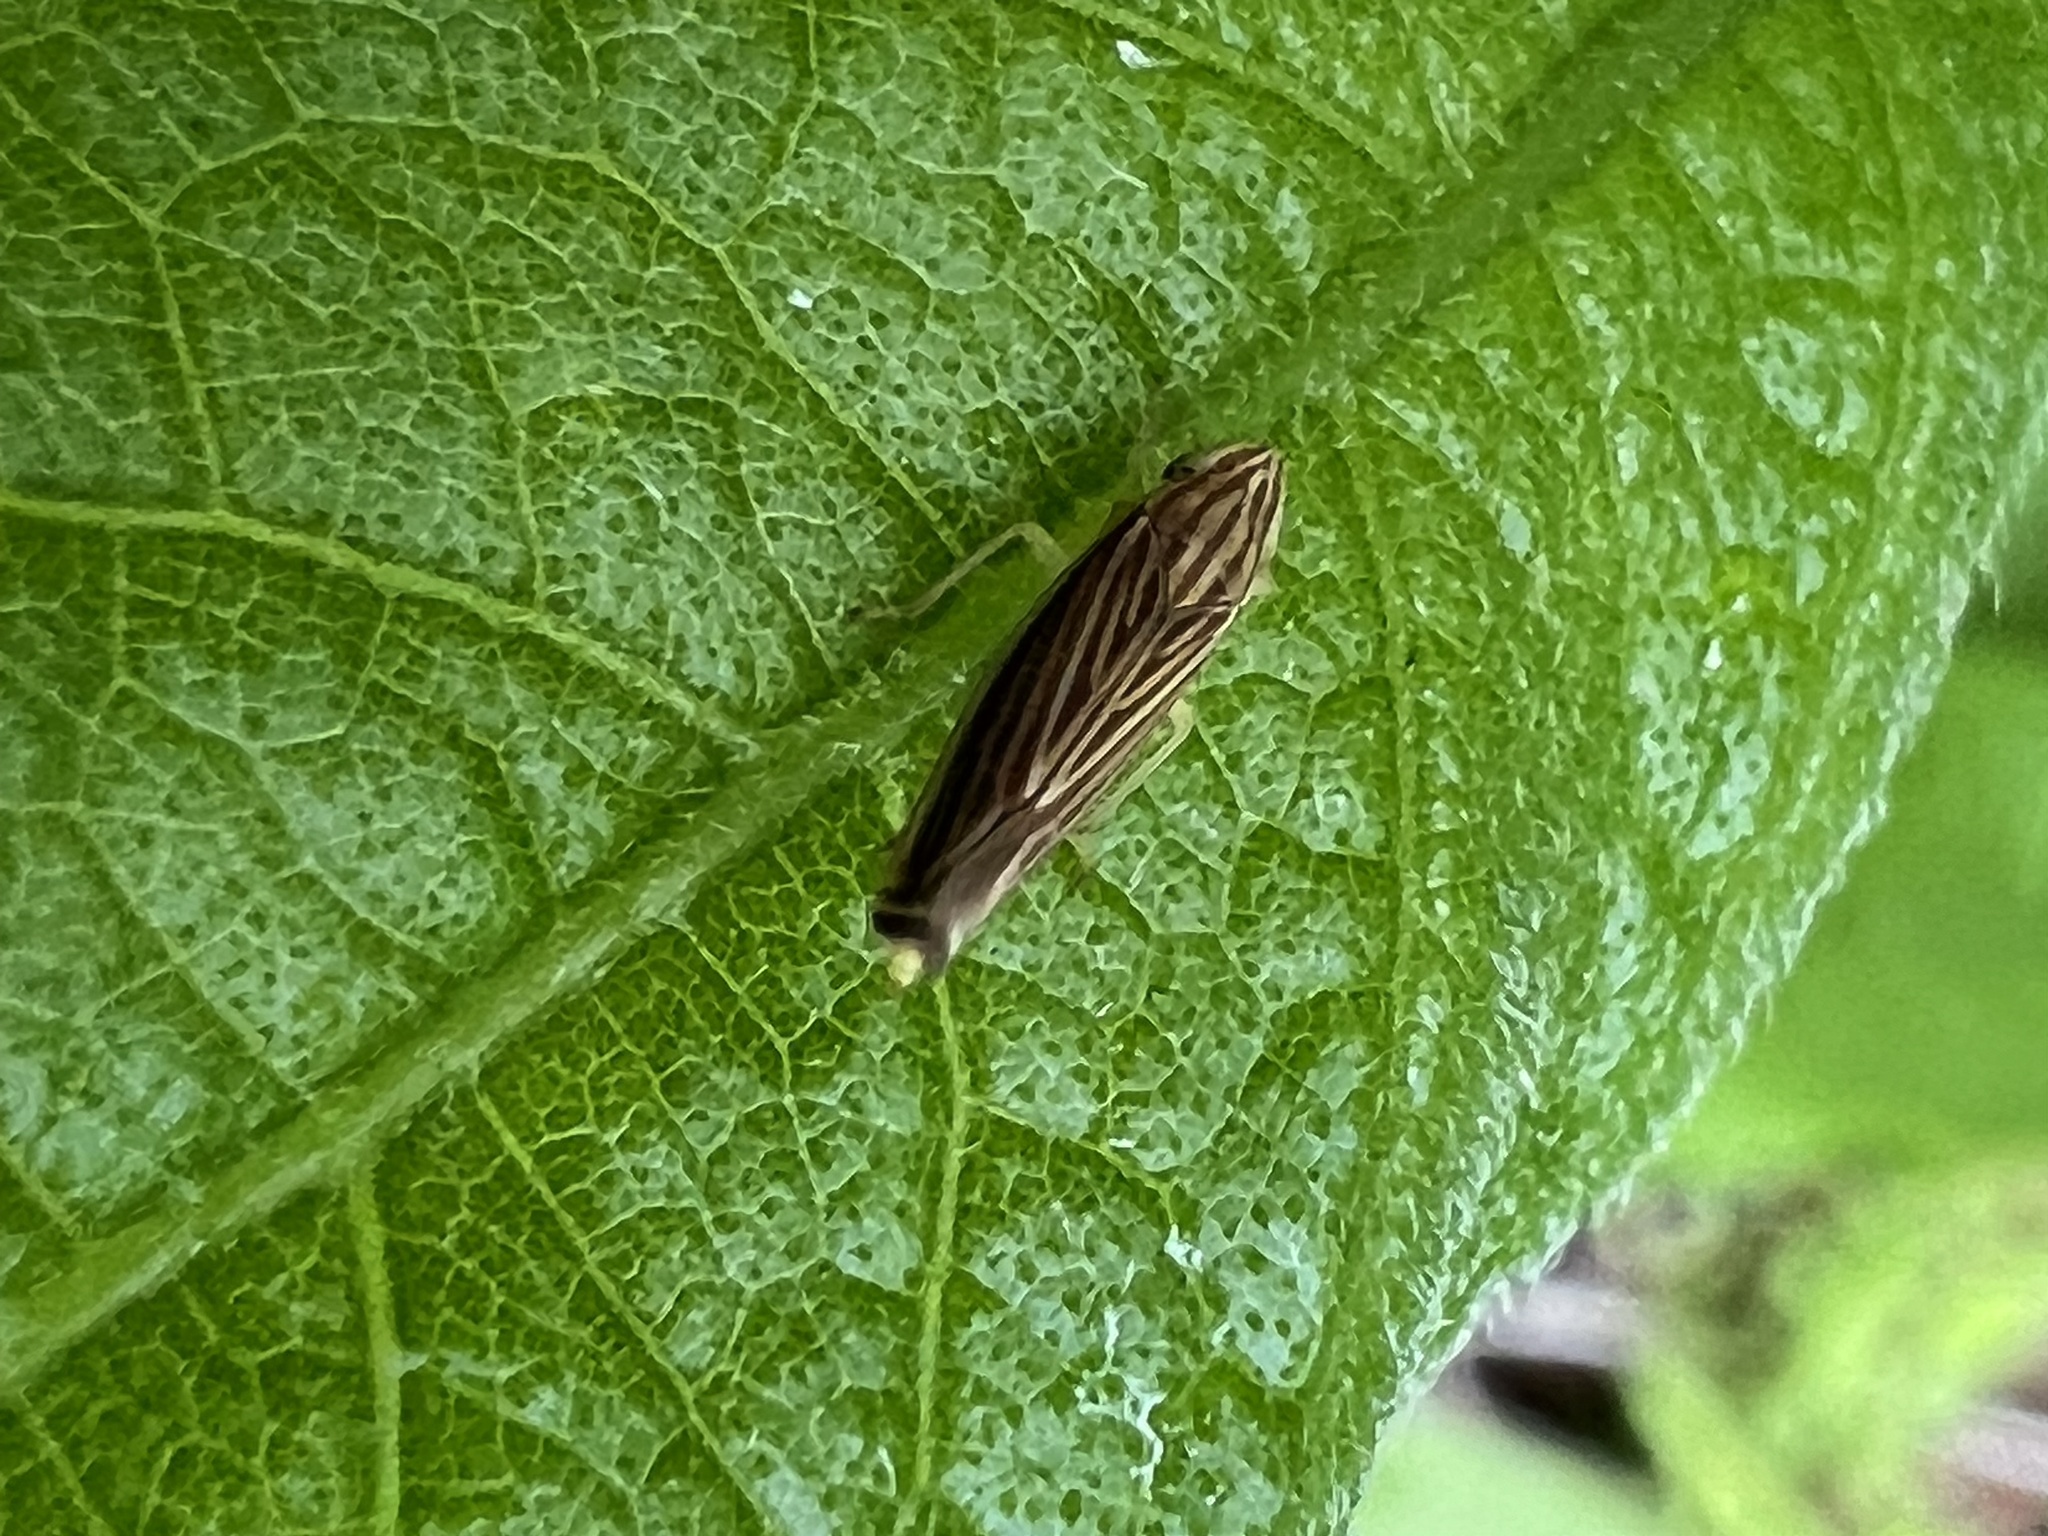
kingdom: Animalia
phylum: Arthropoda
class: Insecta
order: Hemiptera
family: Cicadellidae
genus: Sibovia
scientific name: Sibovia occatoria
